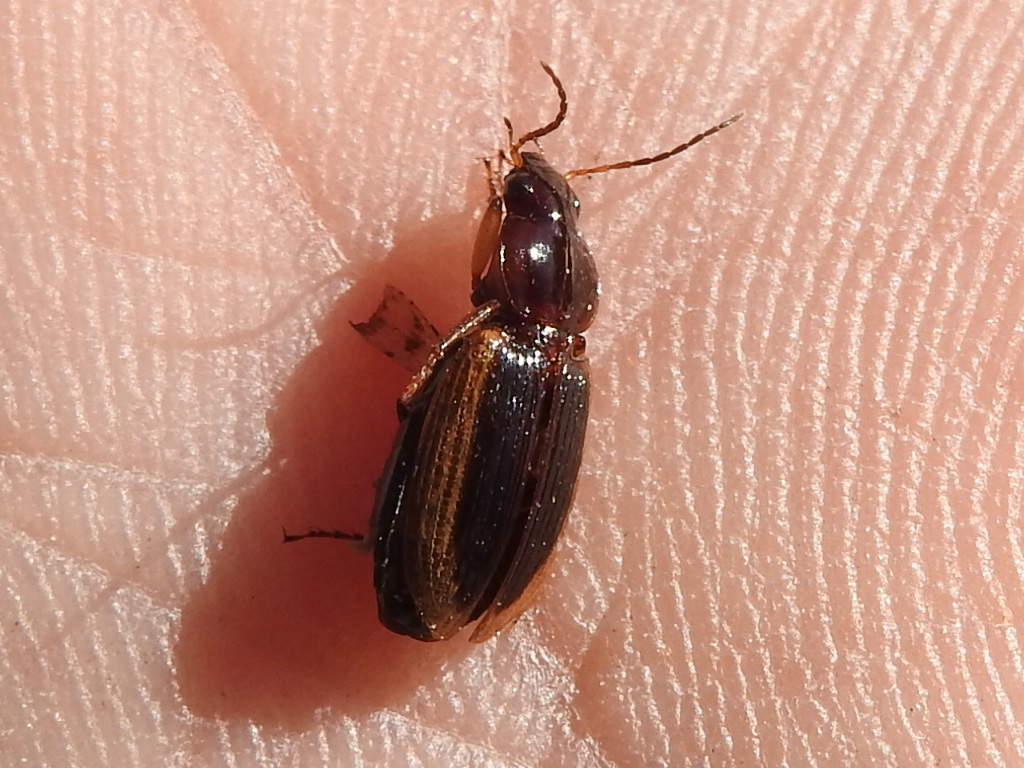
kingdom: Animalia
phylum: Arthropoda
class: Insecta
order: Coleoptera
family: Carabidae
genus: Agonum
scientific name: Agonum pallipes
